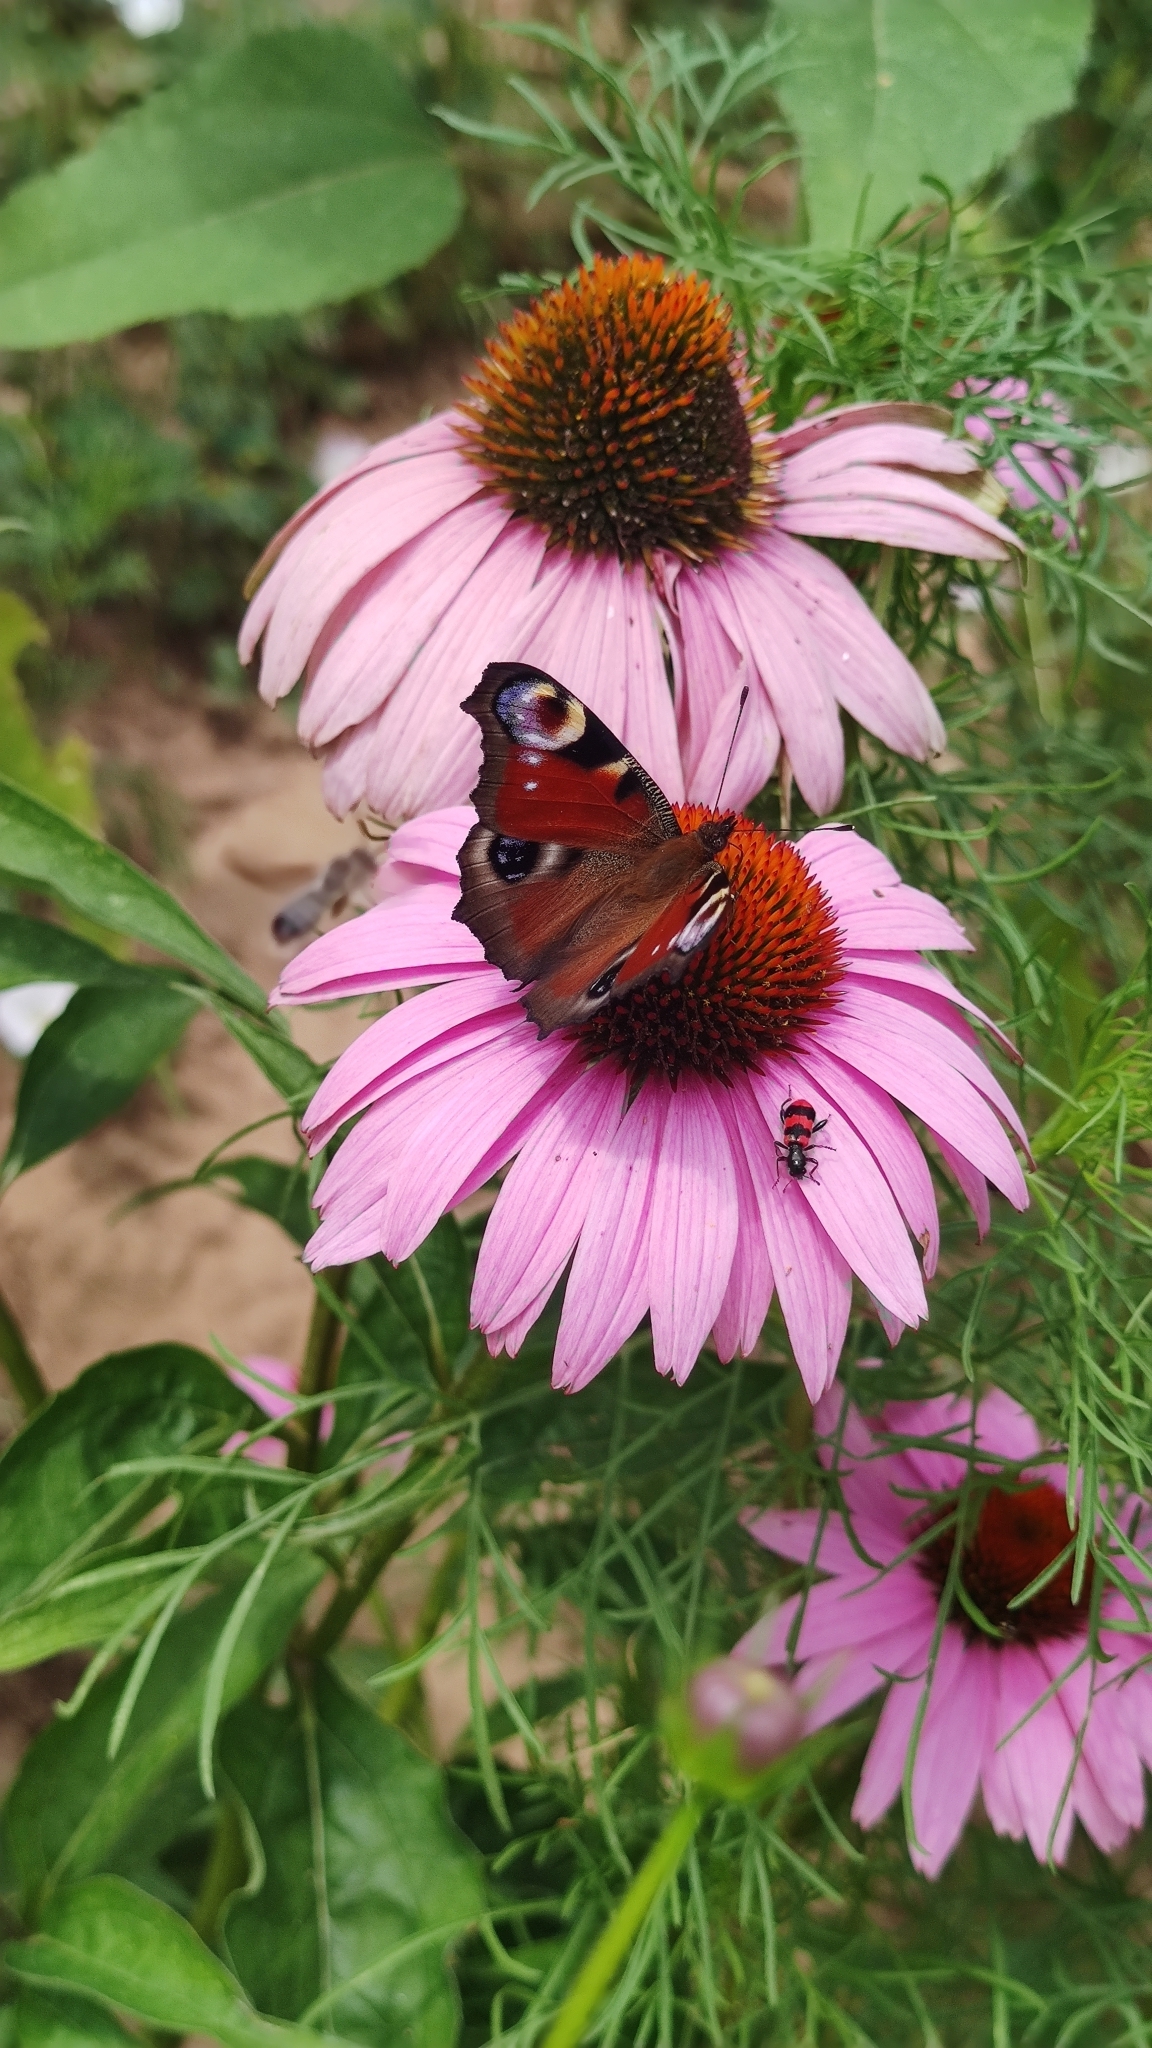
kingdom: Animalia
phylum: Arthropoda
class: Insecta
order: Lepidoptera
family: Nymphalidae
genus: Aglais
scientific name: Aglais io
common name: Peacock
